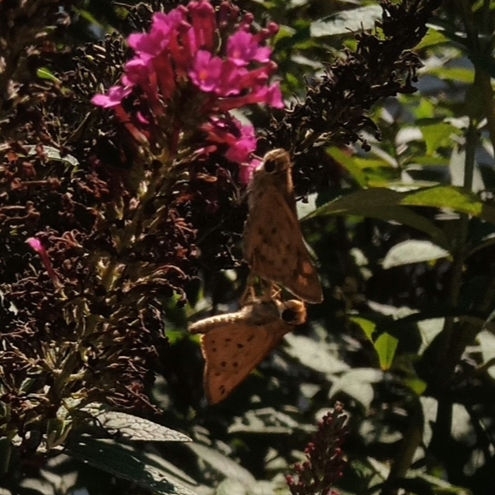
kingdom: Animalia
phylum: Arthropoda
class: Insecta
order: Lepidoptera
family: Hesperiidae
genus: Hylephila
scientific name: Hylephila phyleus
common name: Fiery skipper
